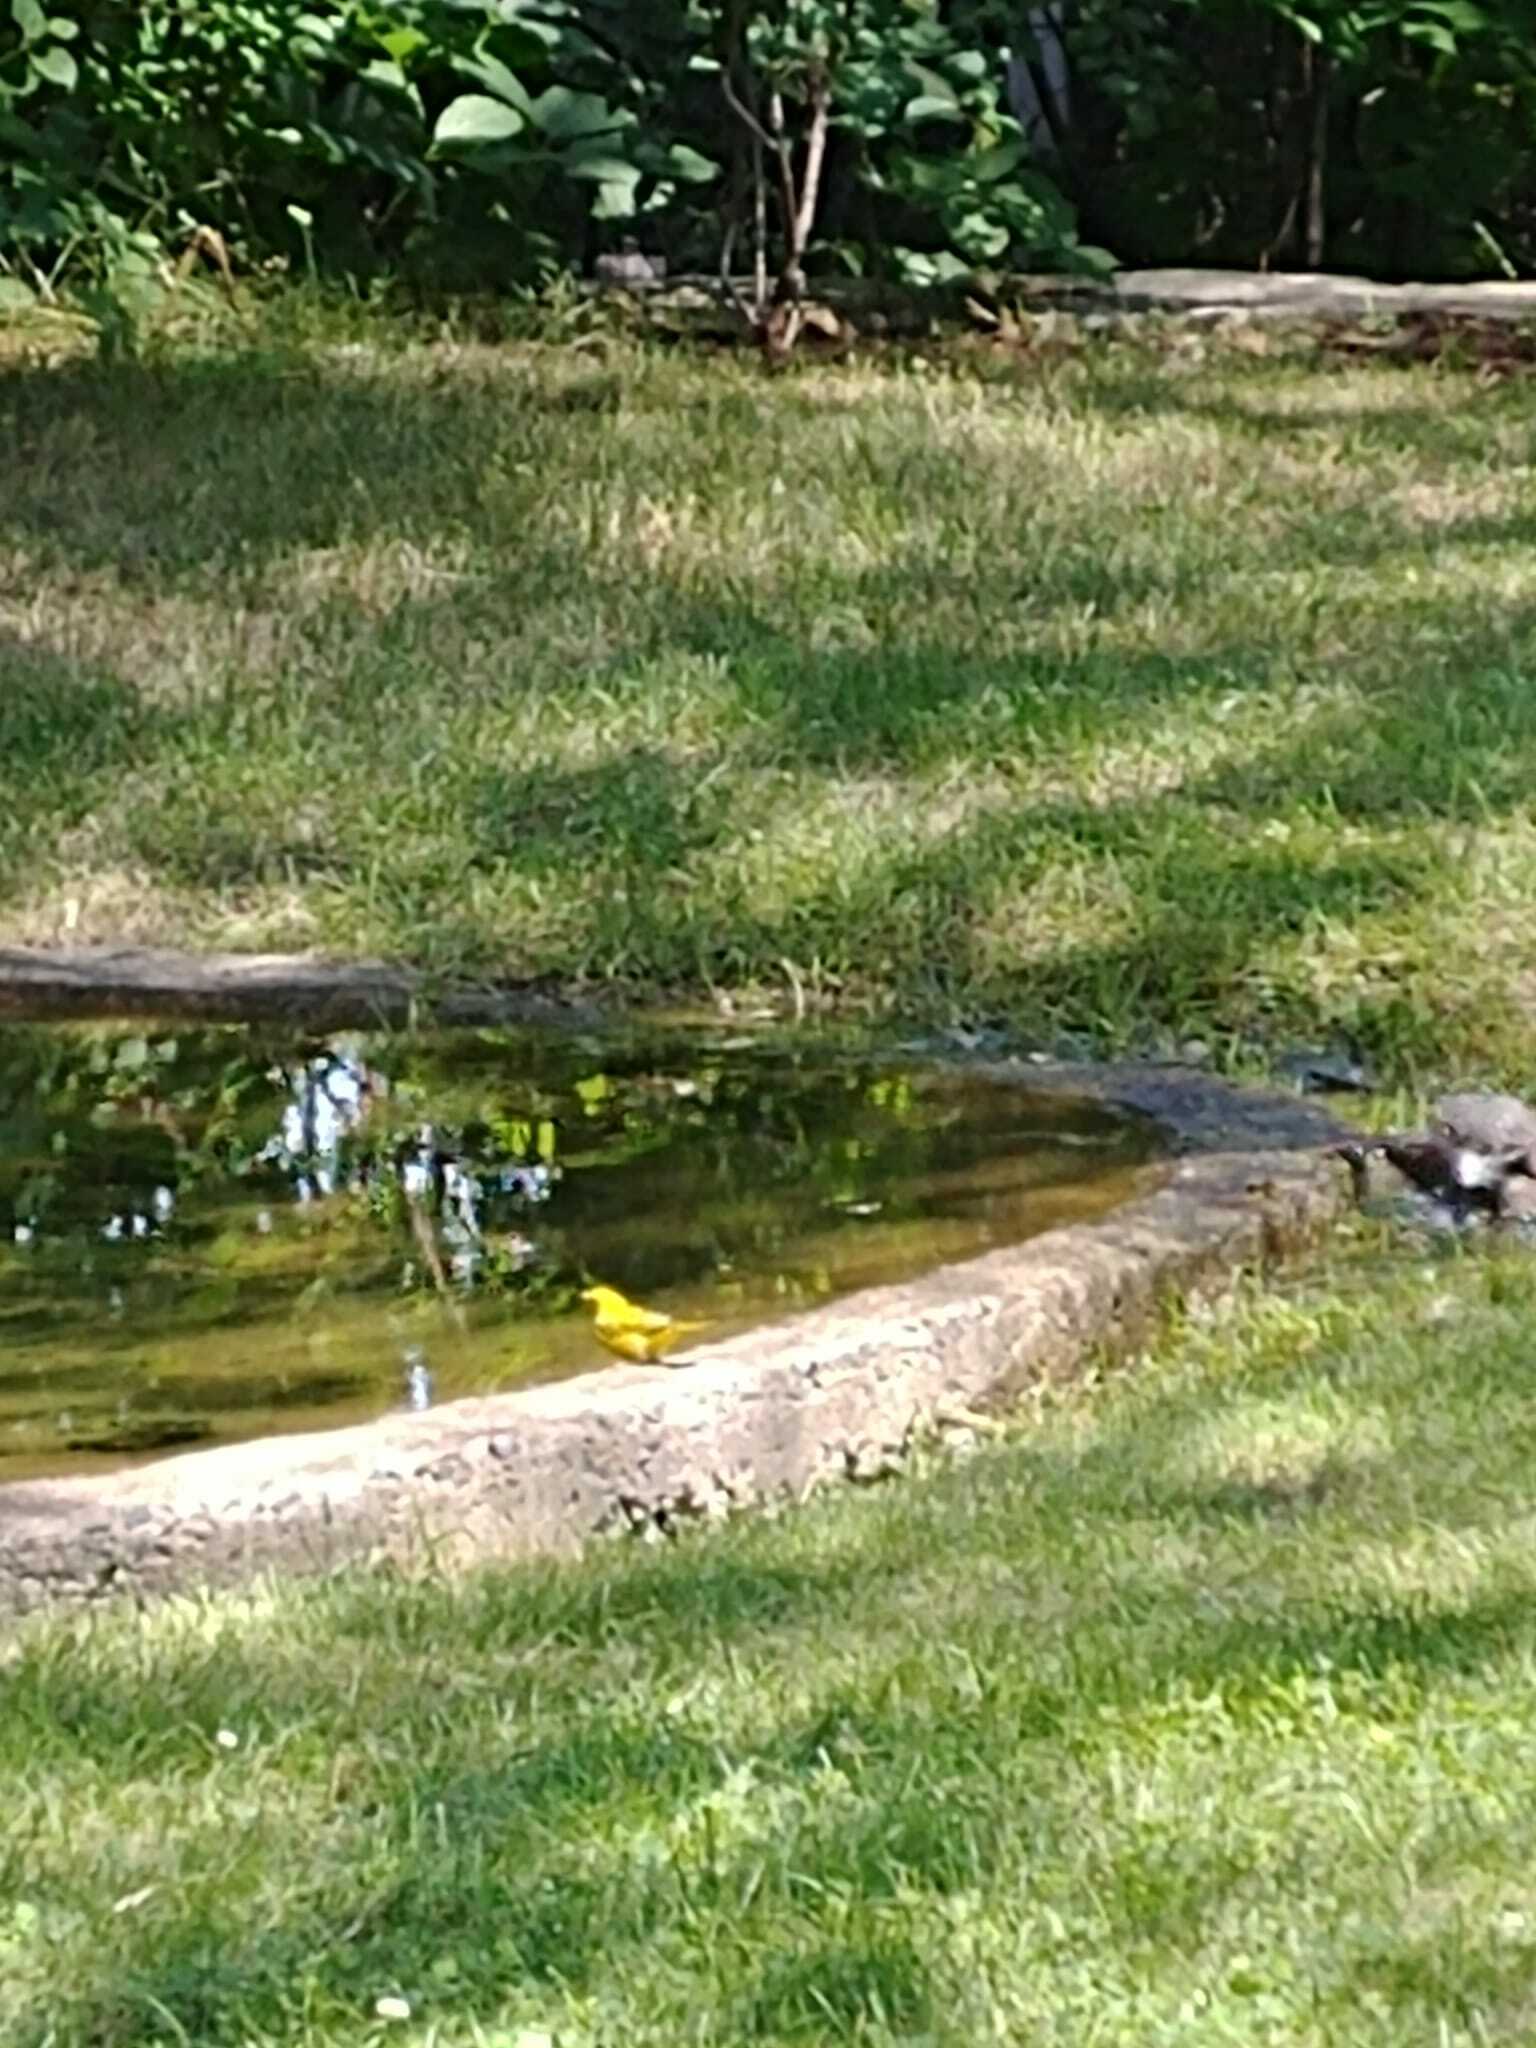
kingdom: Animalia
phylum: Chordata
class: Aves
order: Passeriformes
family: Parulidae
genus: Setophaga
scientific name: Setophaga petechia
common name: Yellow warbler
